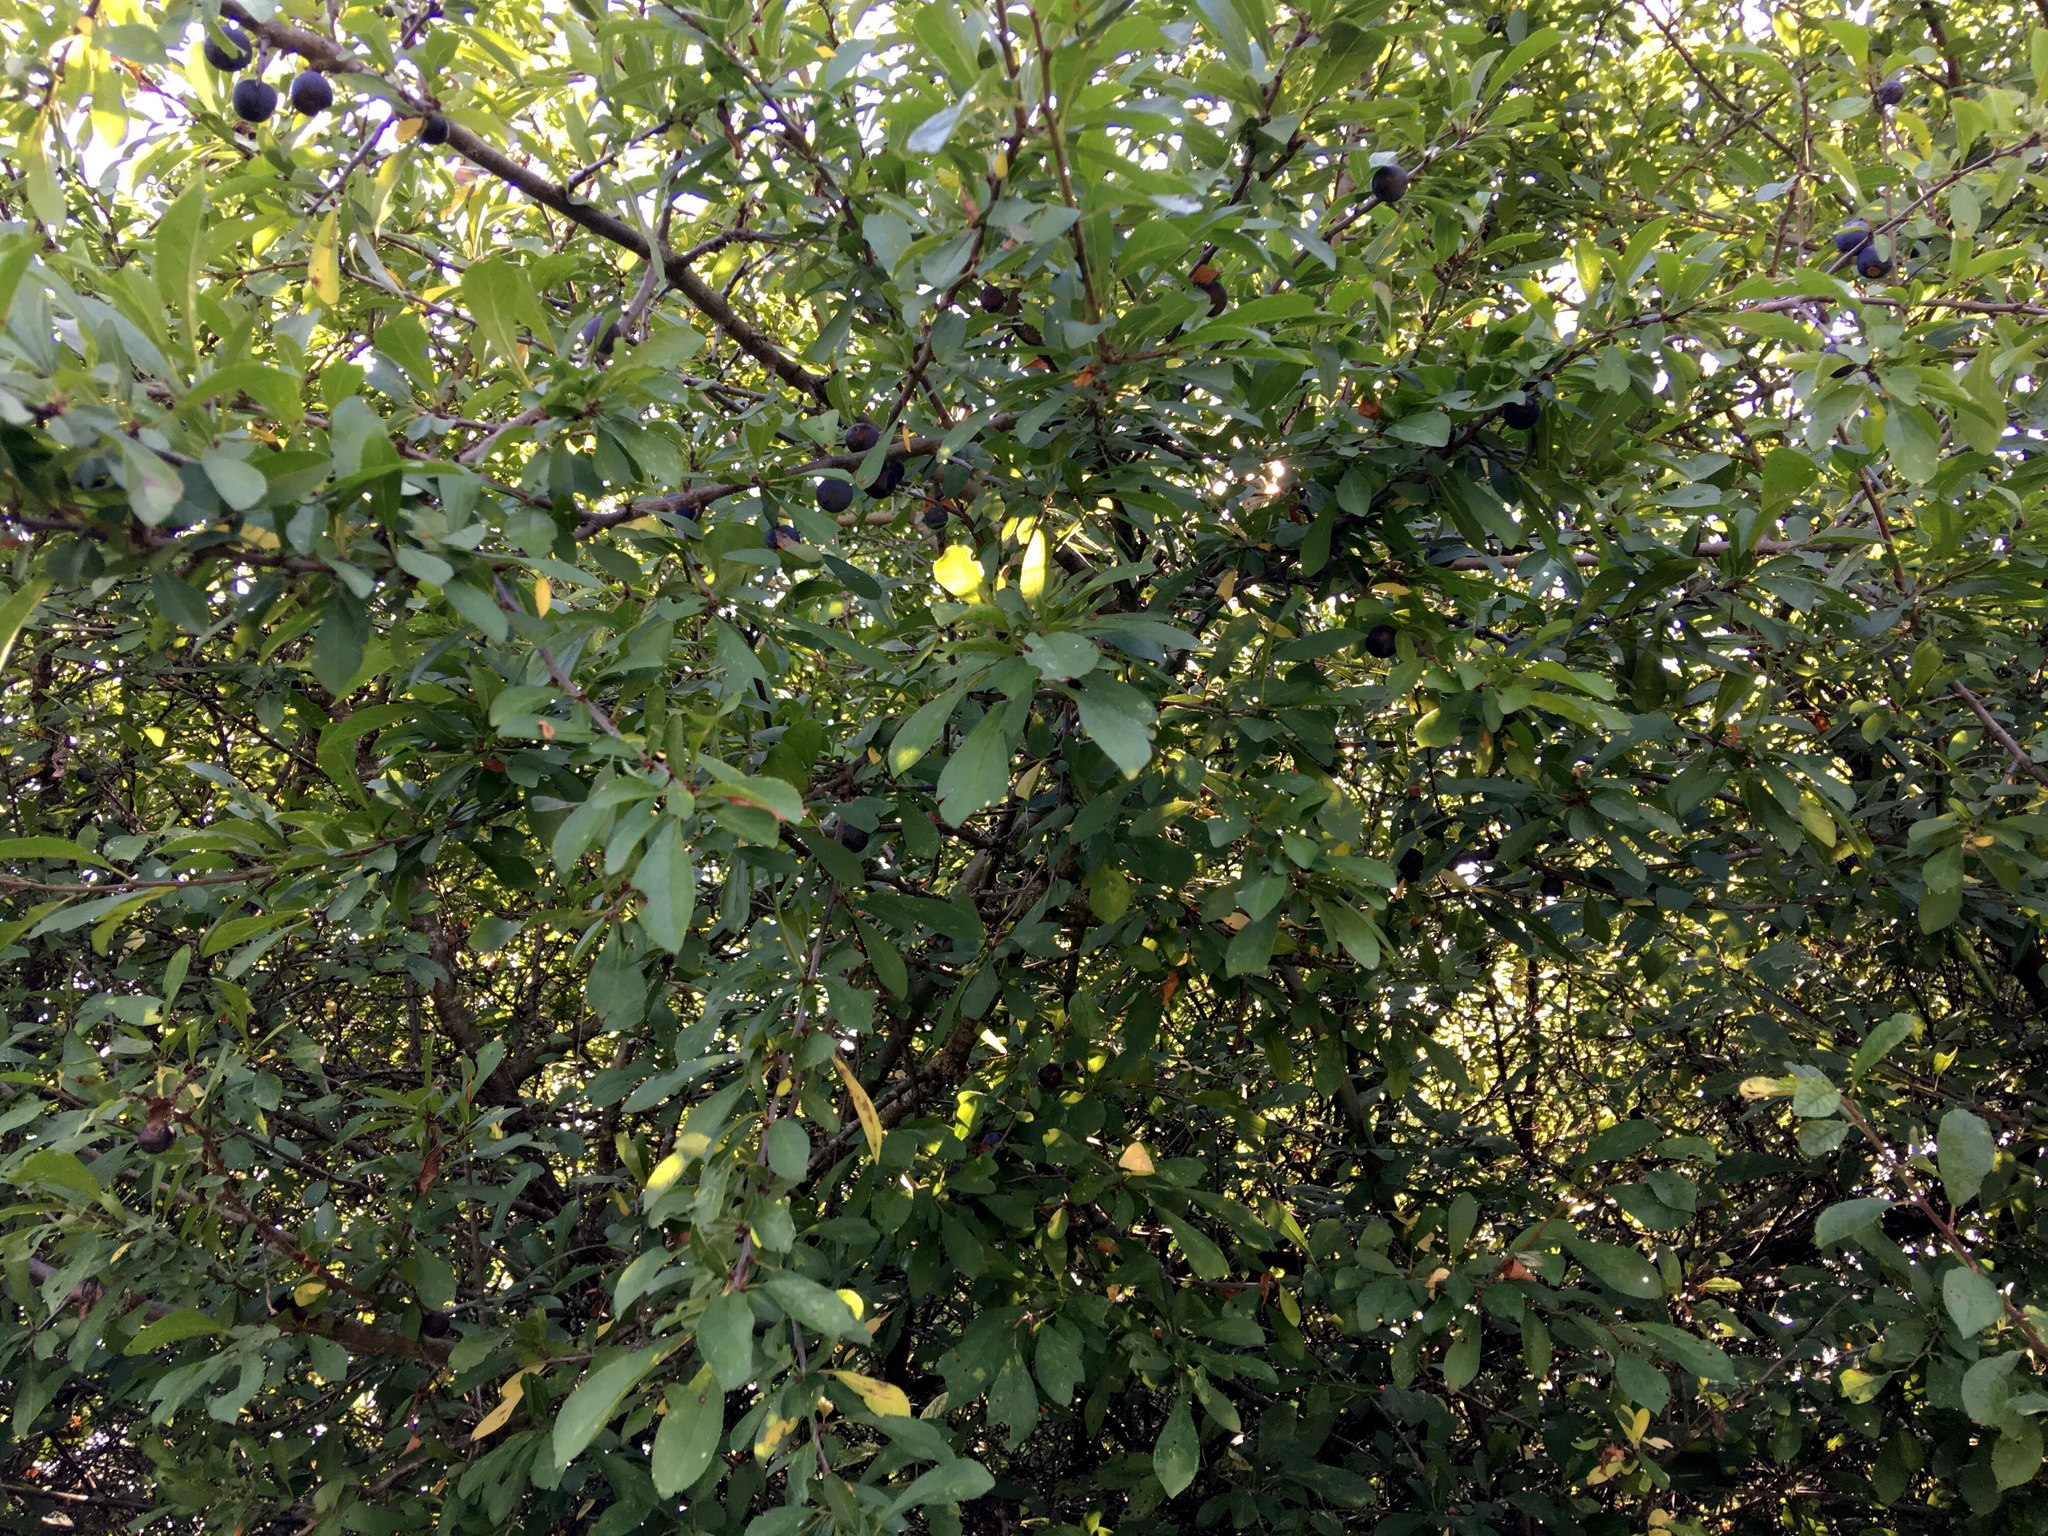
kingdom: Plantae
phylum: Tracheophyta
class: Magnoliopsida
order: Rosales
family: Rosaceae
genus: Prunus
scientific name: Prunus spinosa
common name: Blackthorn
